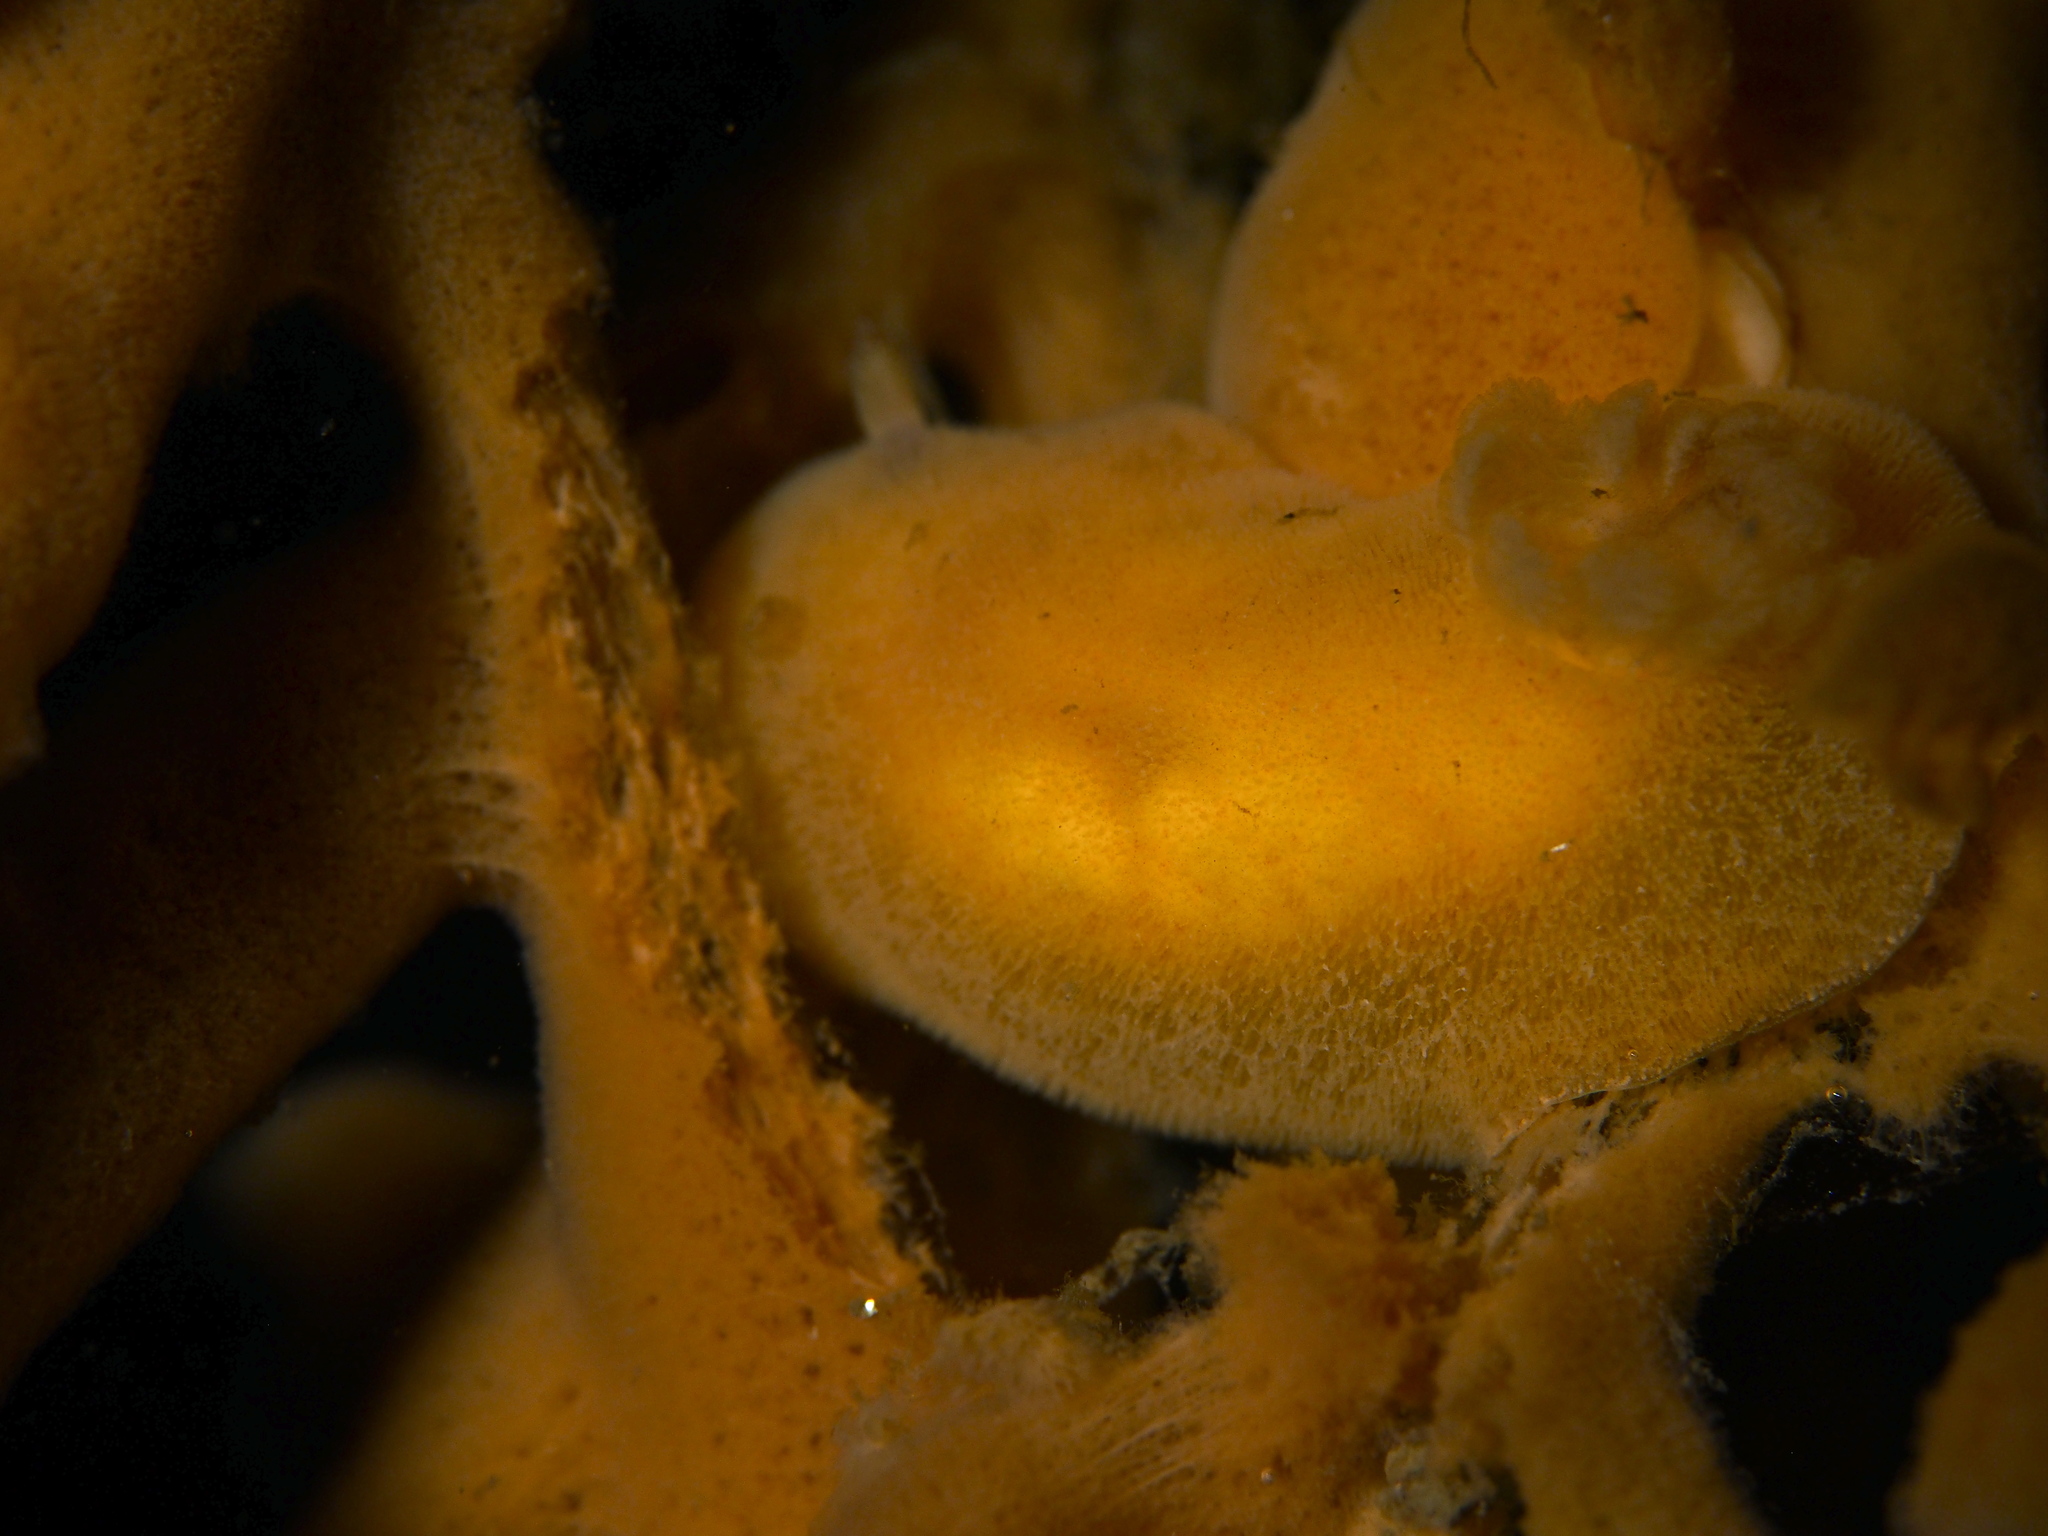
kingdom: Animalia
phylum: Mollusca
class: Gastropoda
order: Nudibranchia
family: Discodorididae
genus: Jorunna
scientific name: Jorunna tomentosa
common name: Grey sea slug
